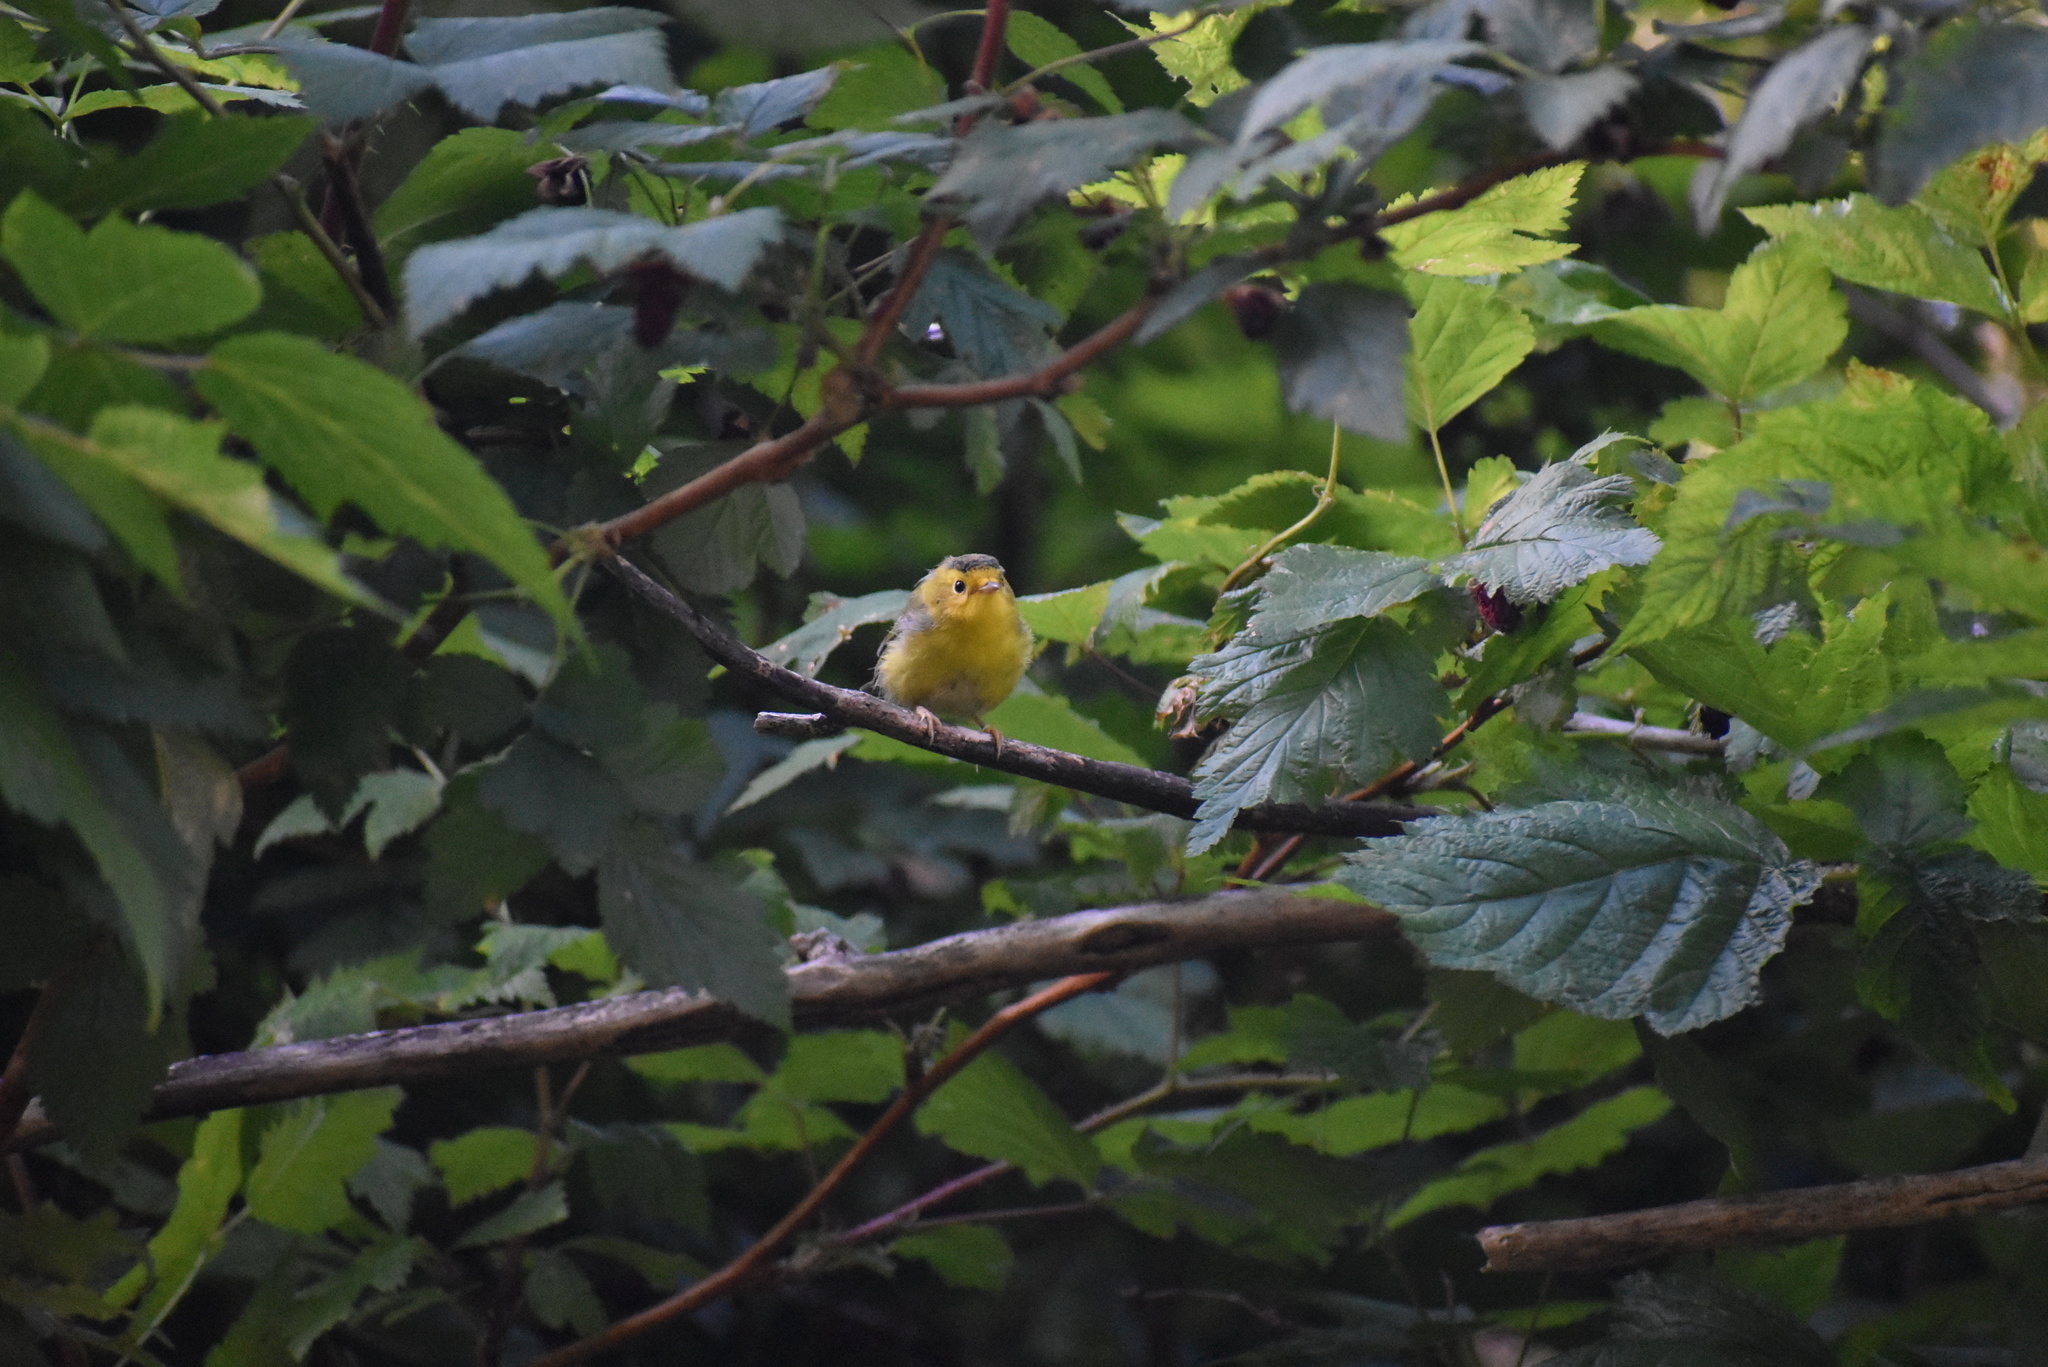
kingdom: Animalia
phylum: Chordata
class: Aves
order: Passeriformes
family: Parulidae
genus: Cardellina
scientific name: Cardellina pusilla
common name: Wilson's warbler
